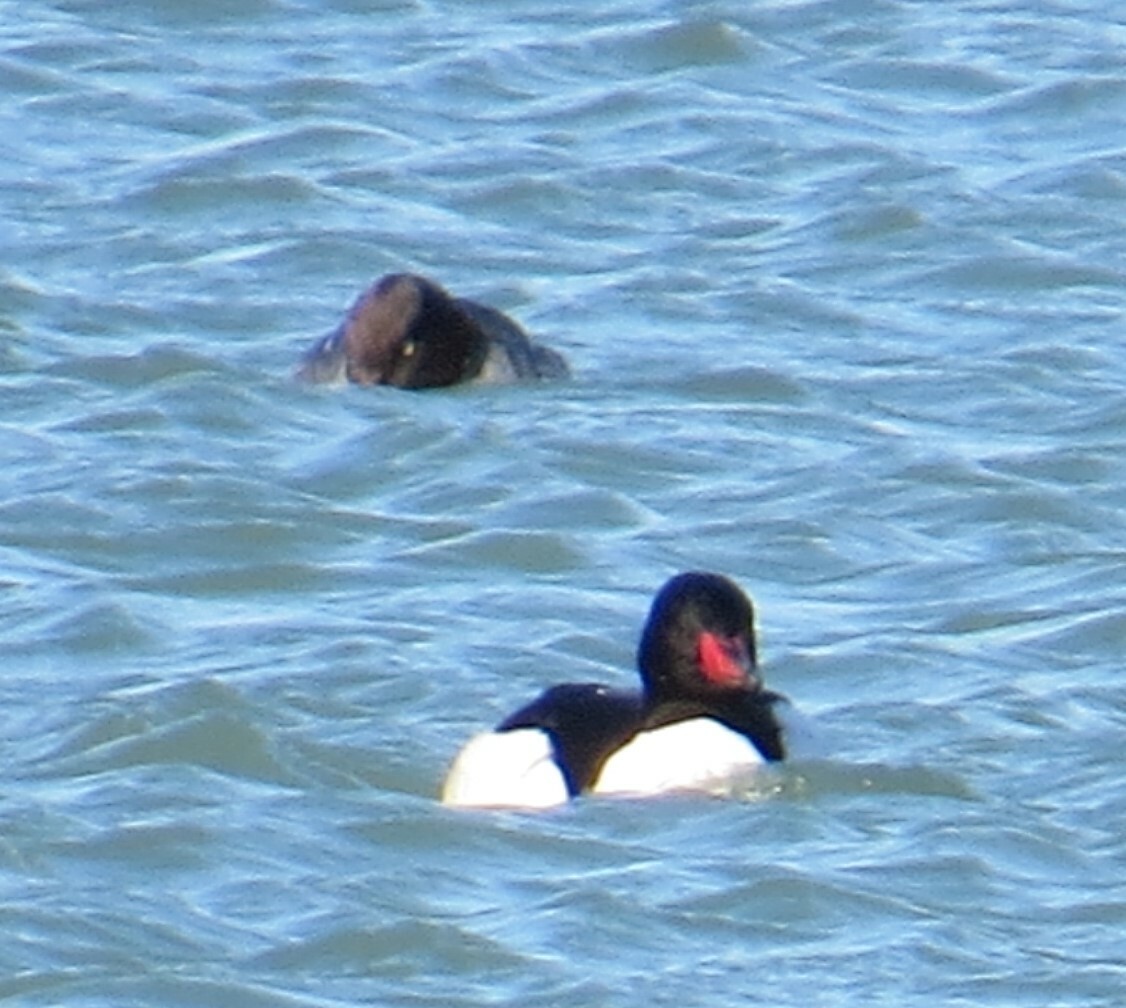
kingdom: Animalia
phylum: Chordata
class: Aves
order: Anseriformes
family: Anatidae
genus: Mergus
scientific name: Mergus merganser
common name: Common merganser
